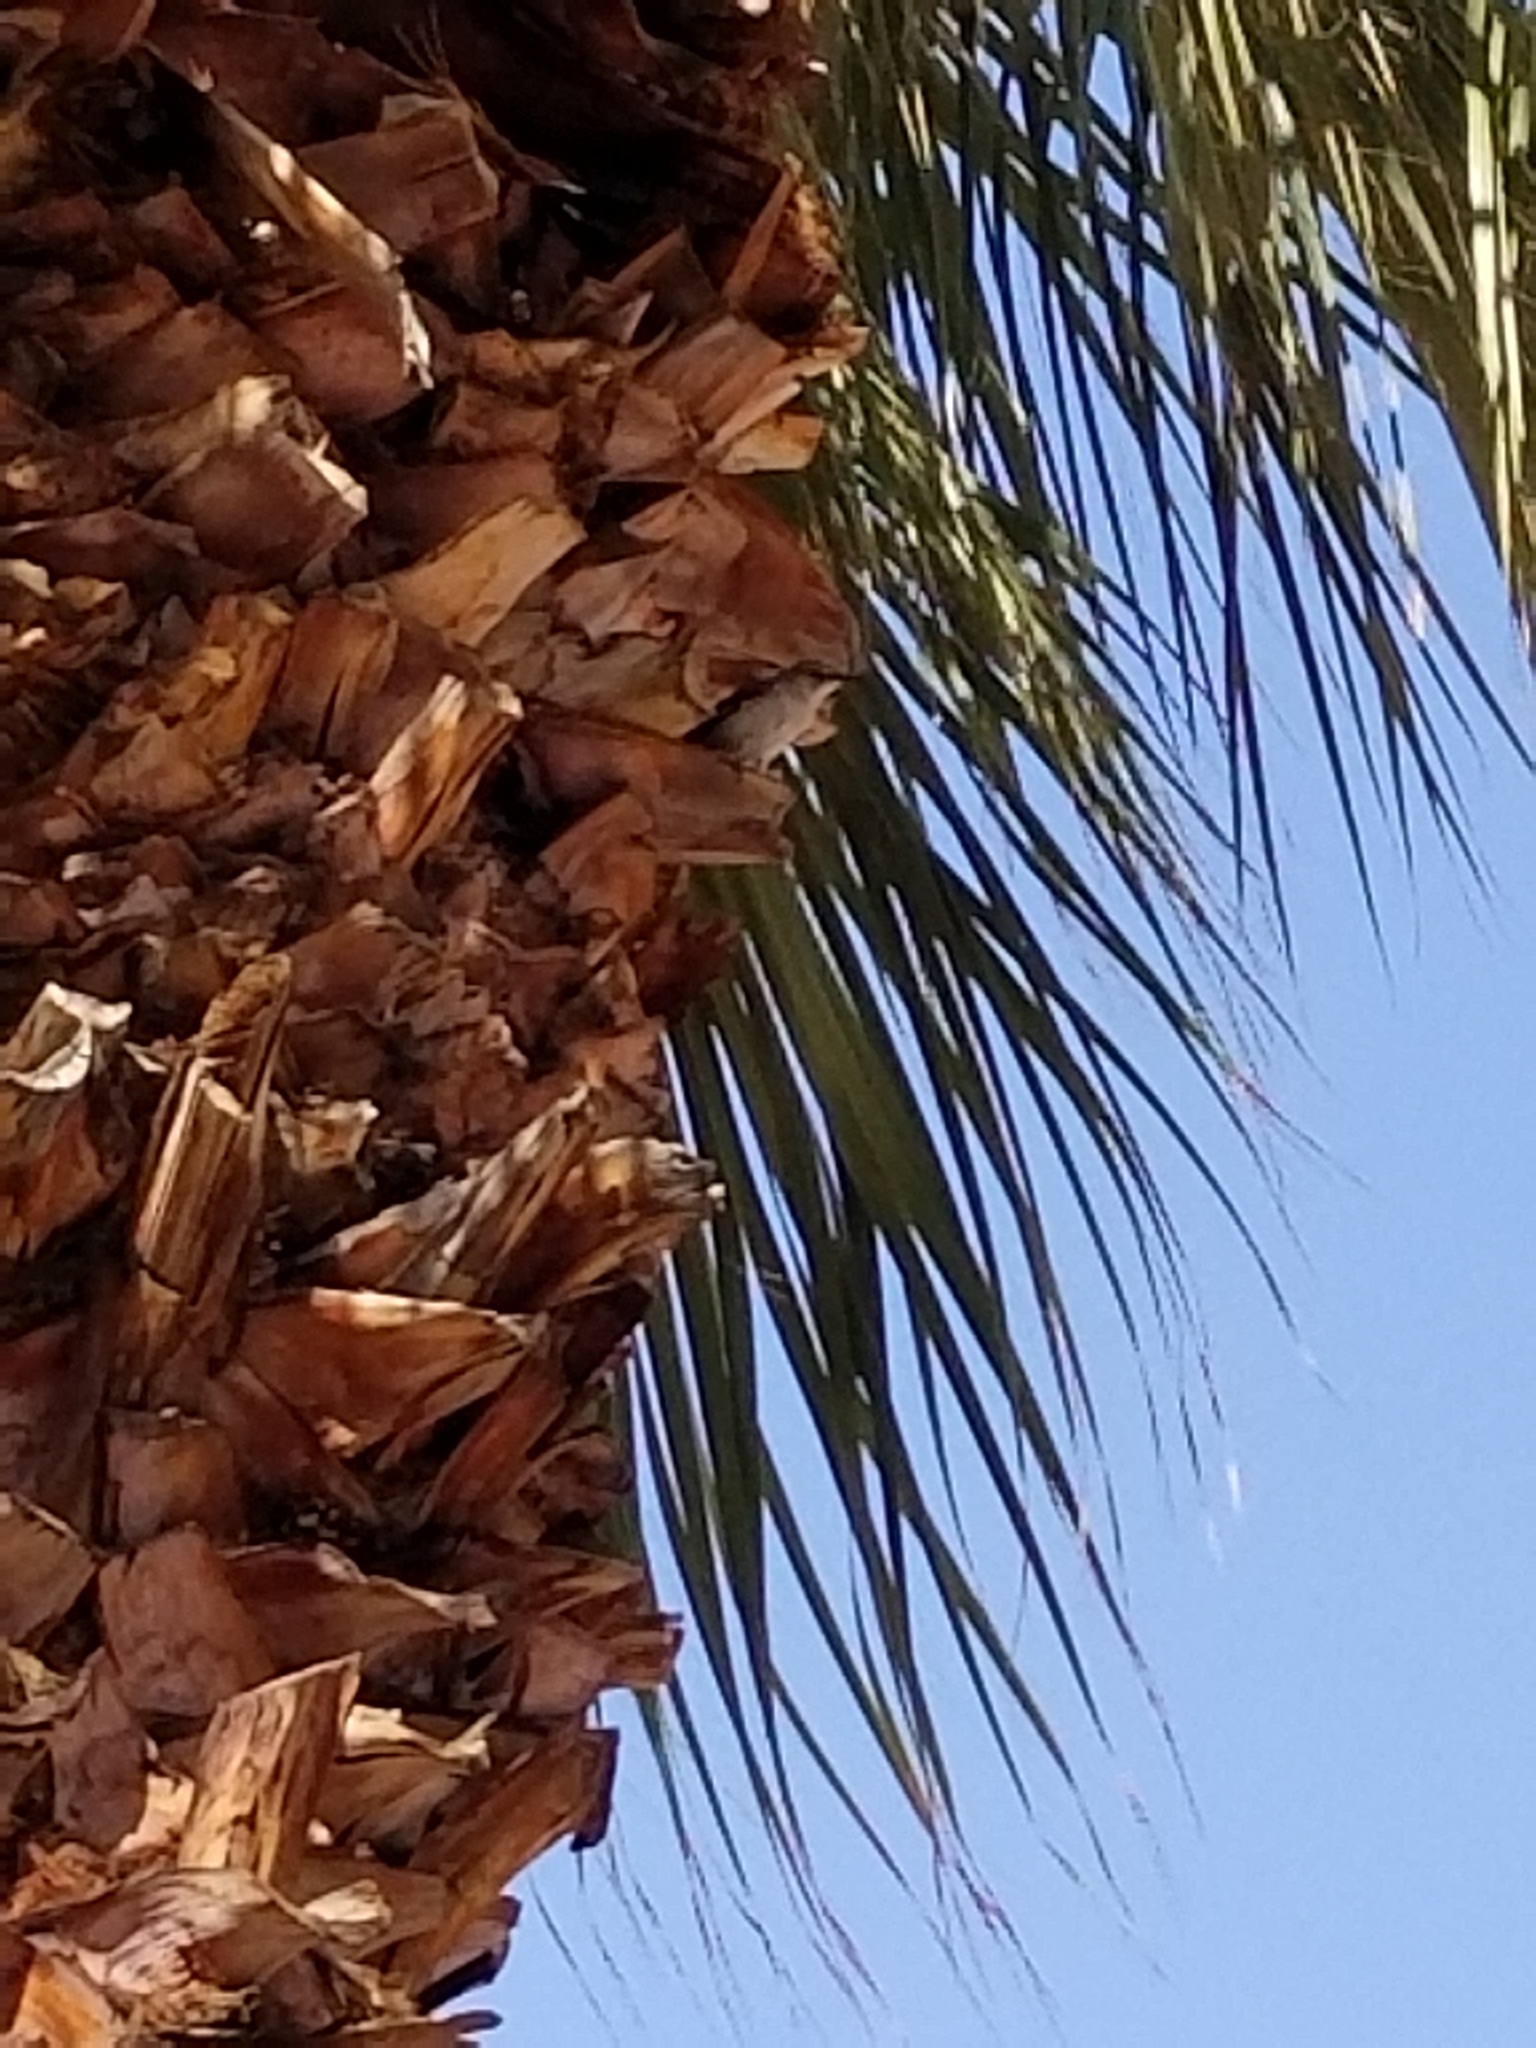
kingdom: Animalia
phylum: Chordata
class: Aves
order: Passeriformes
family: Mimidae
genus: Mimus
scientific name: Mimus polyglottos
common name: Northern mockingbird
